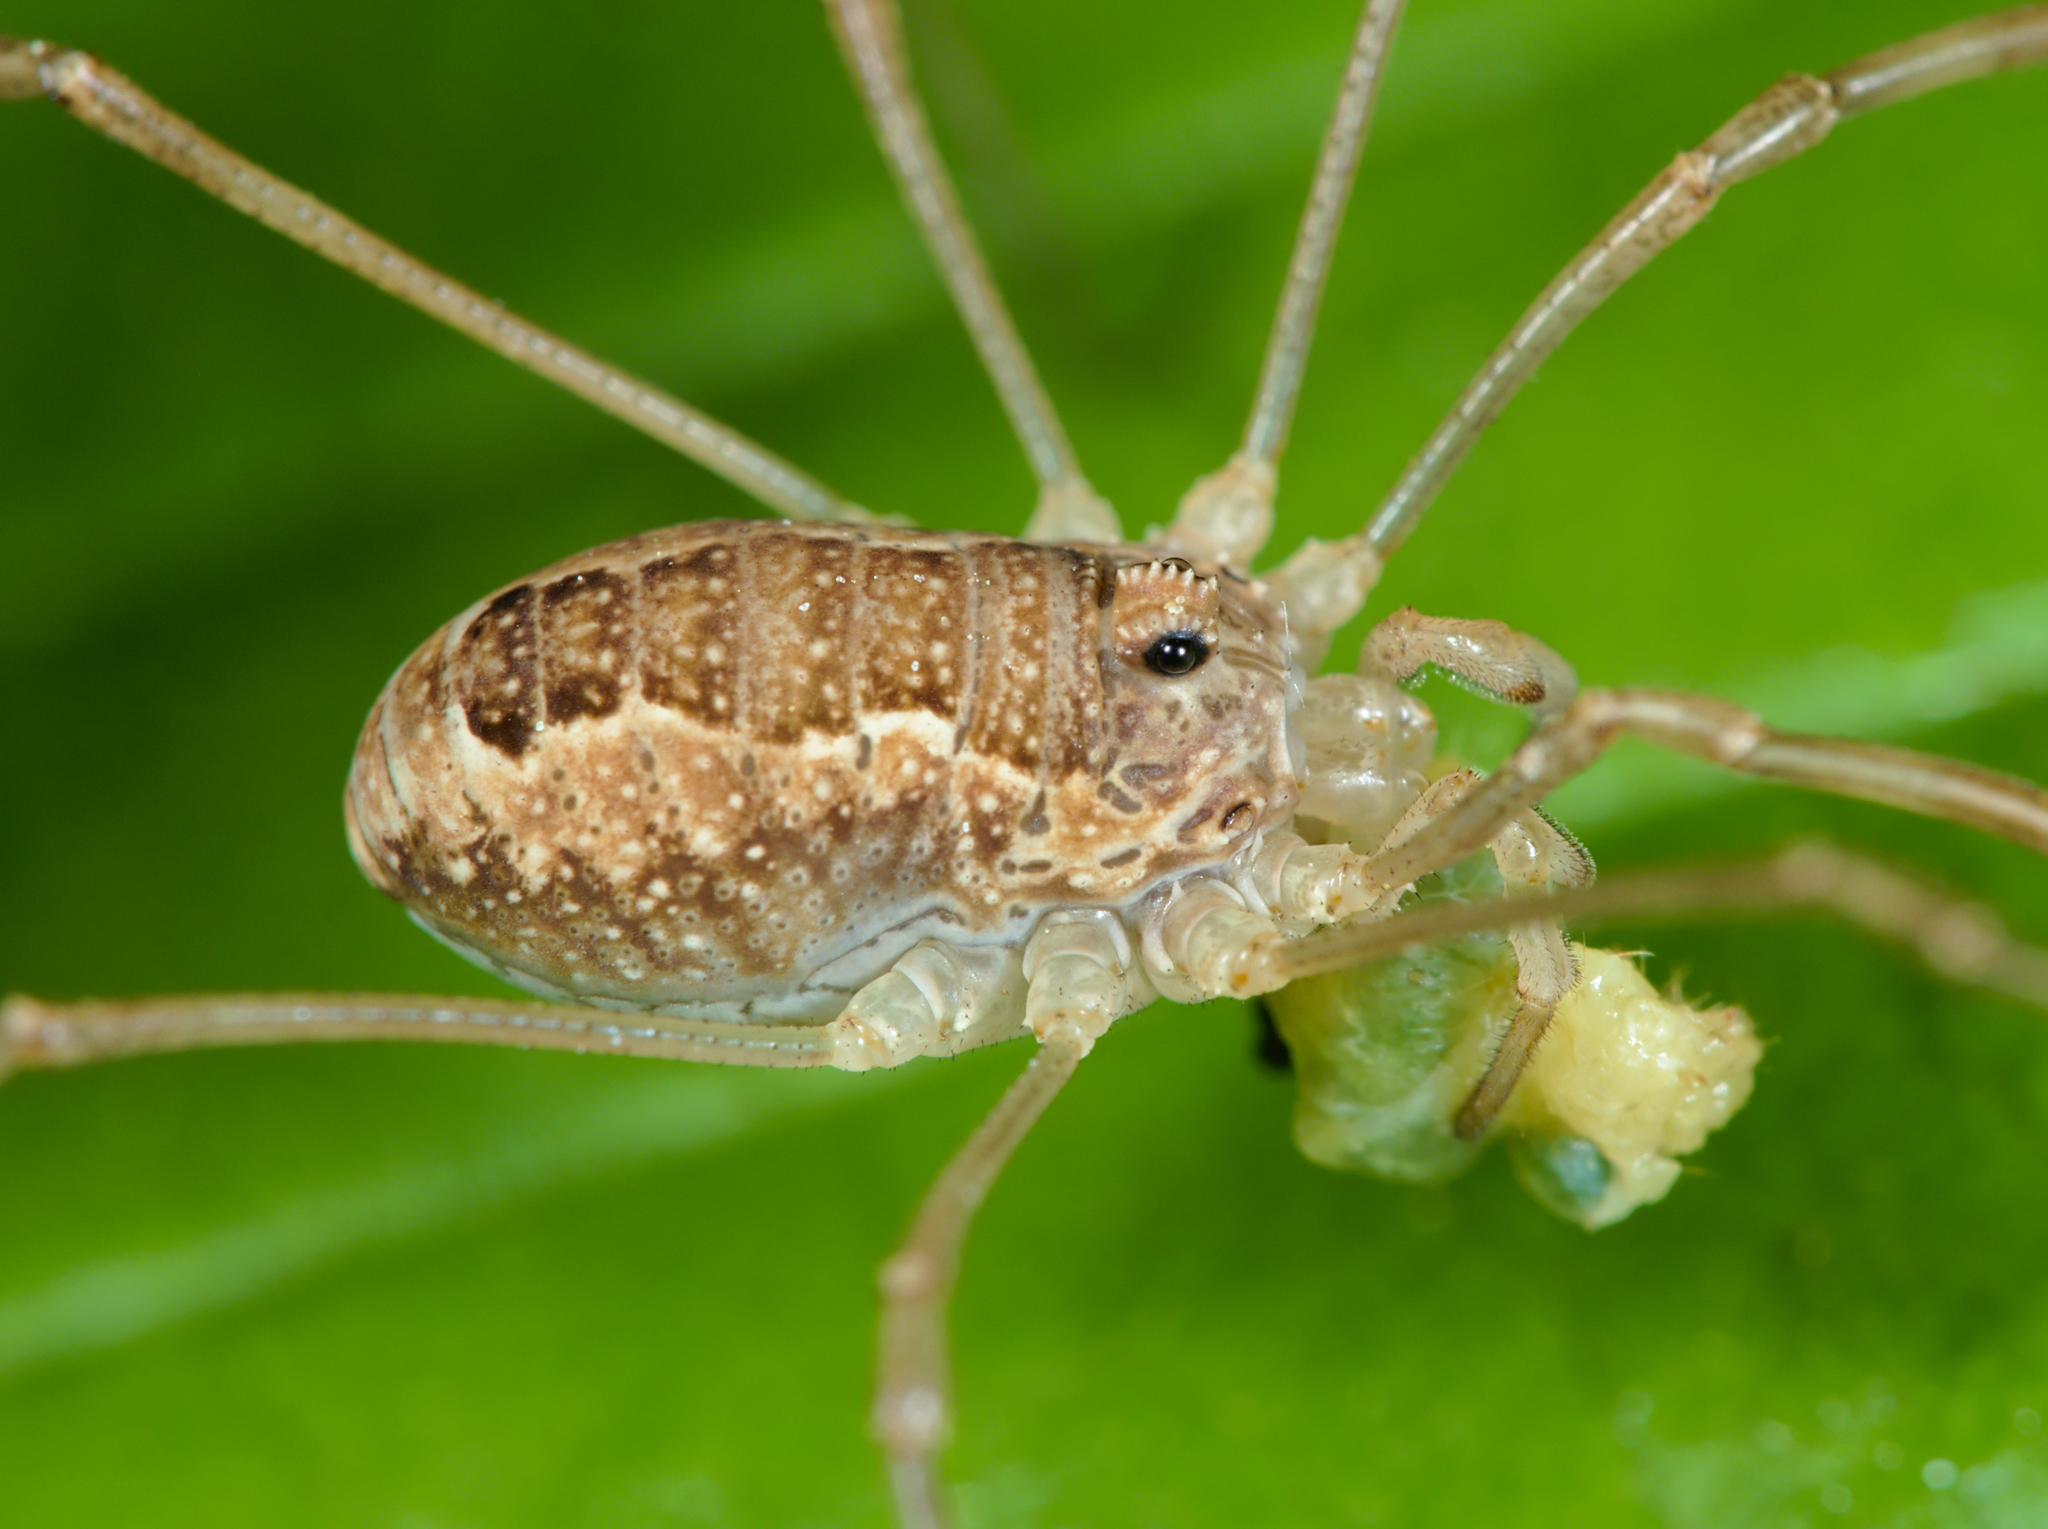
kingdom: Animalia
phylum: Arthropoda
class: Arachnida
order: Opiliones
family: Phalangiidae
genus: Rilaena
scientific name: Rilaena triangularis
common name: Spring harvestman
